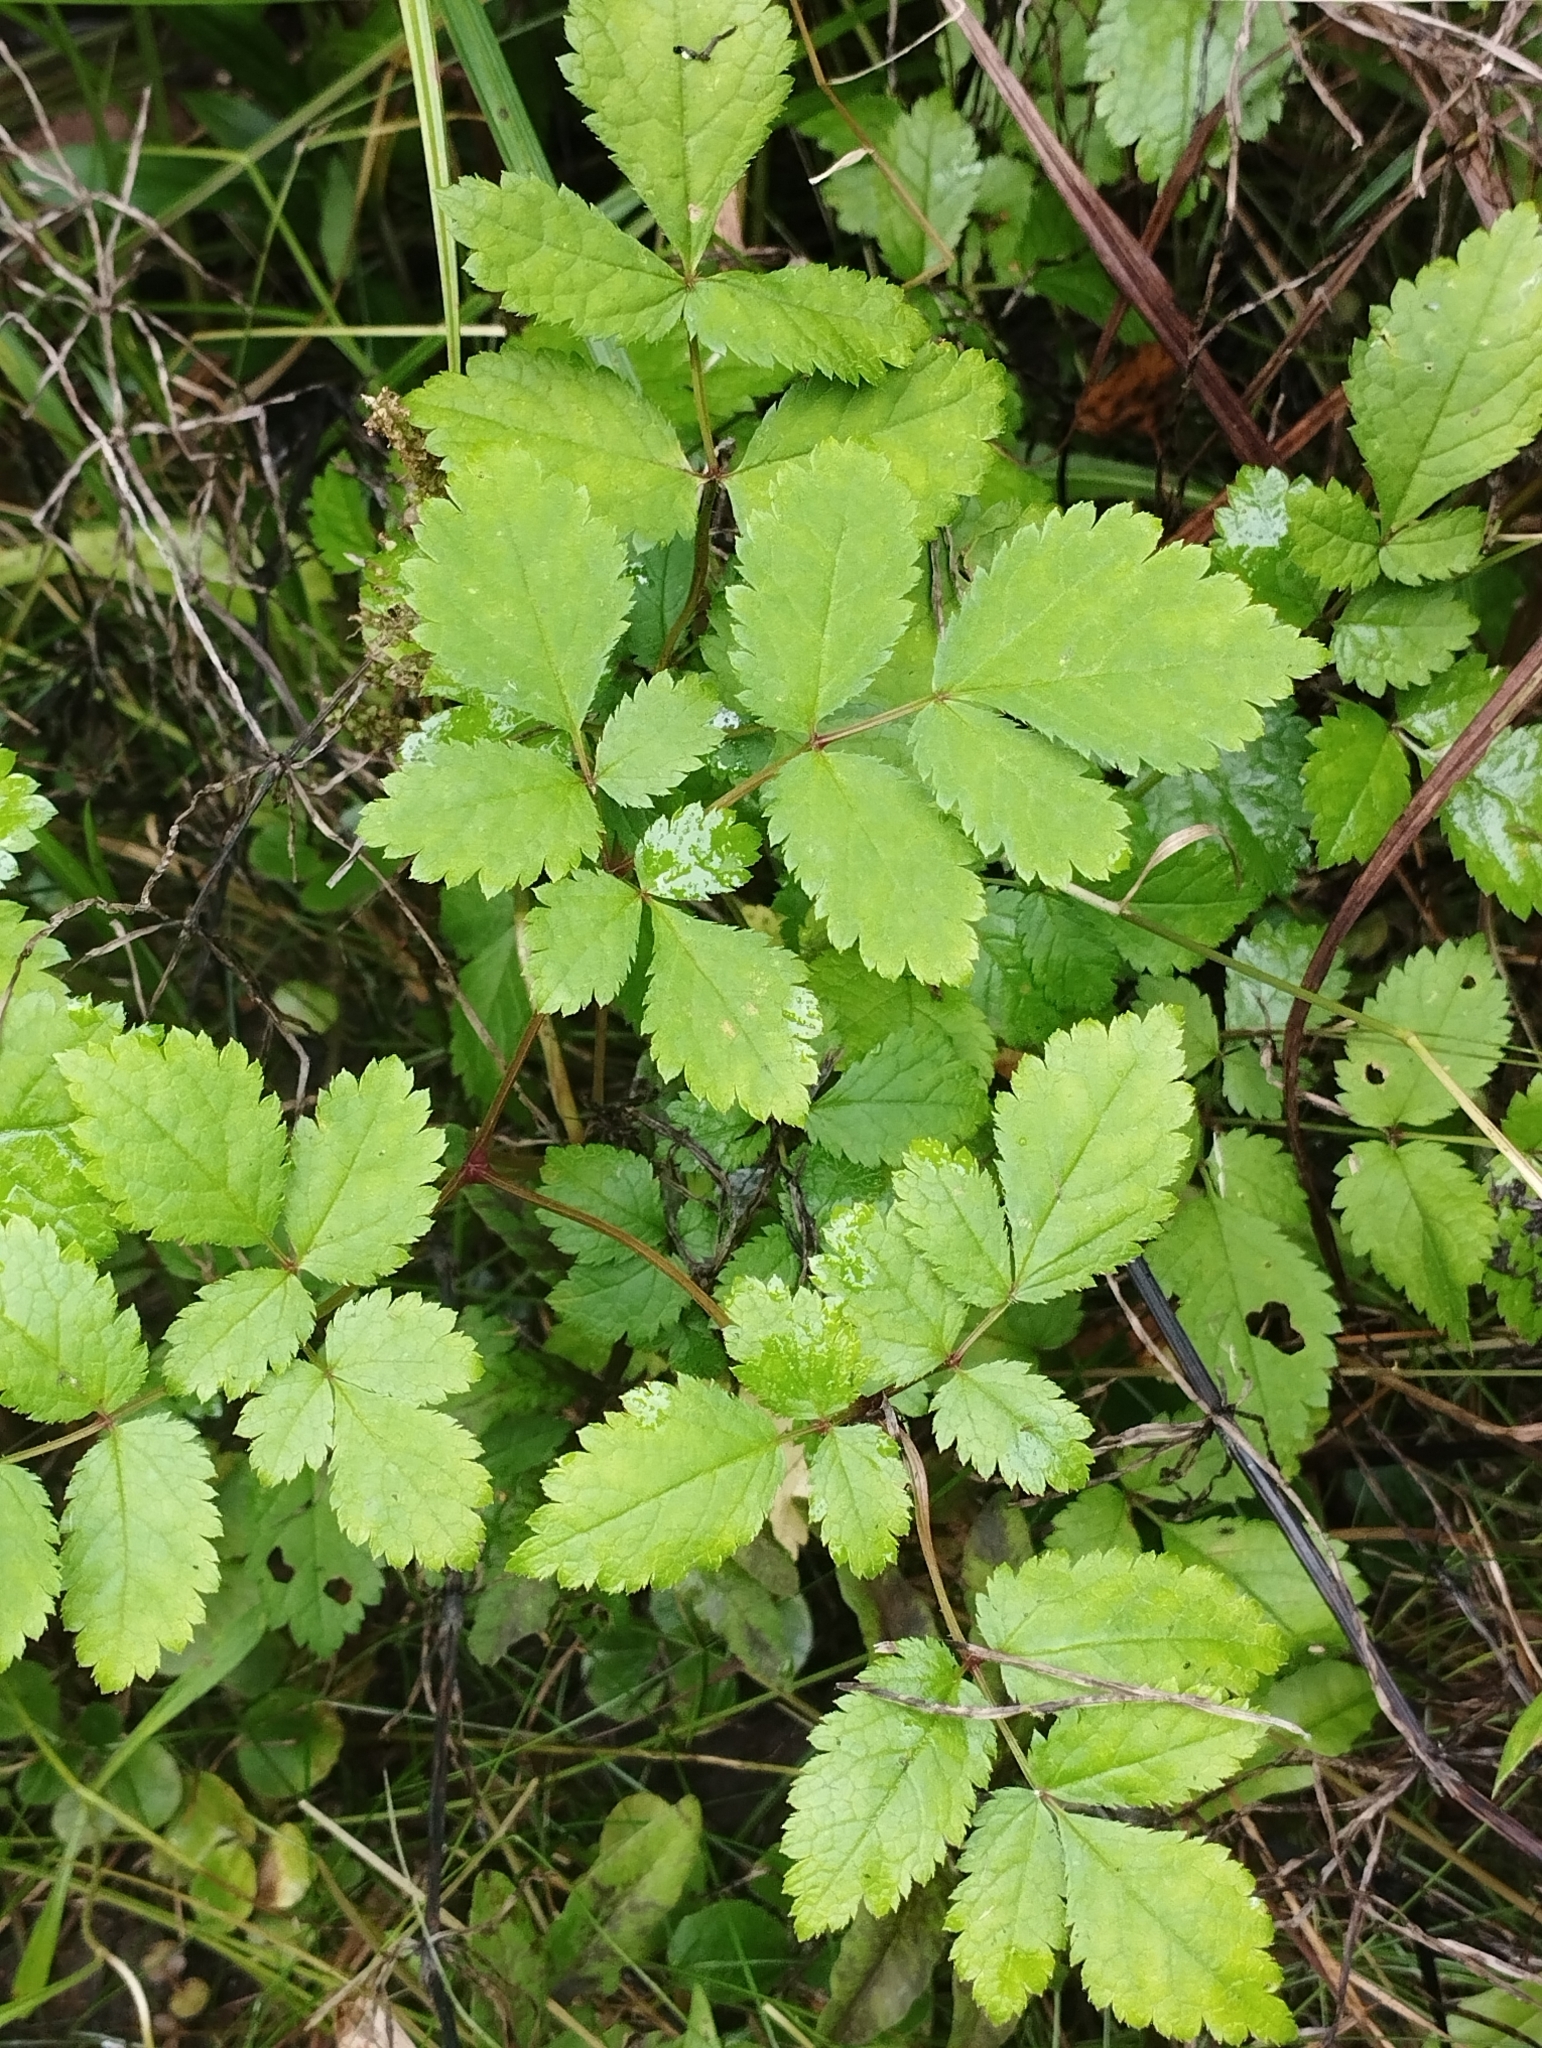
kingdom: Plantae
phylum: Tracheophyta
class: Magnoliopsida
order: Saxifragales
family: Saxifragaceae
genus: Astilbe
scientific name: Astilbe rubra
